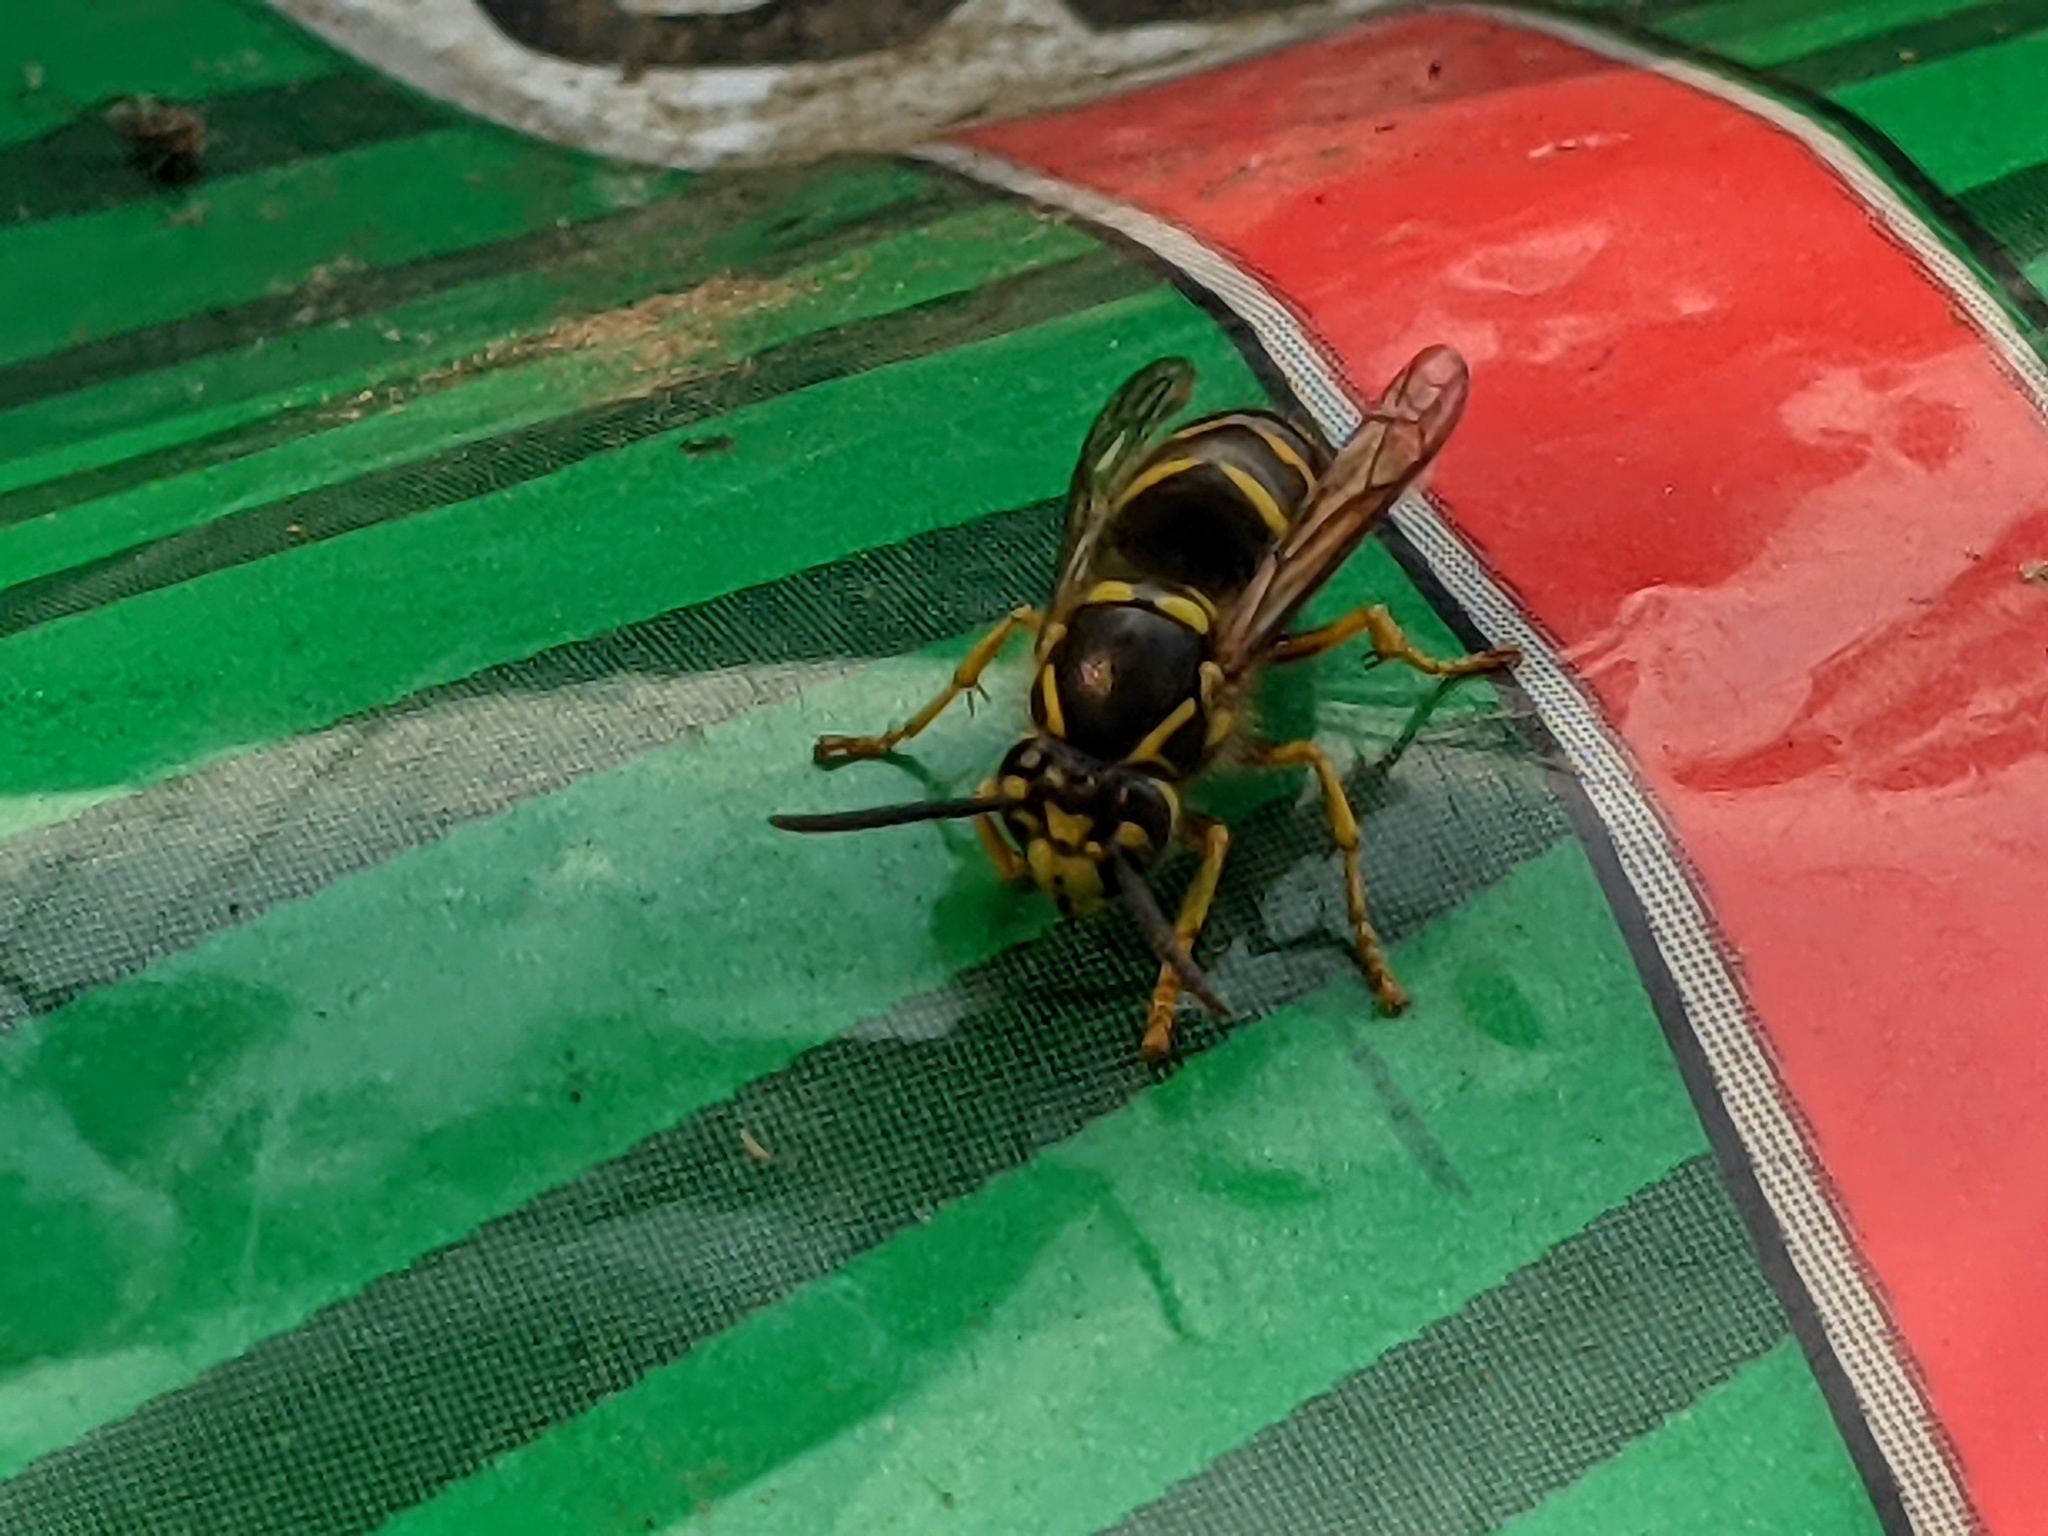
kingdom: Animalia
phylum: Arthropoda
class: Insecta
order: Hymenoptera
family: Vespidae
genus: Dolichovespula
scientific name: Dolichovespula arenaria
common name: Aerial yellowjacket
